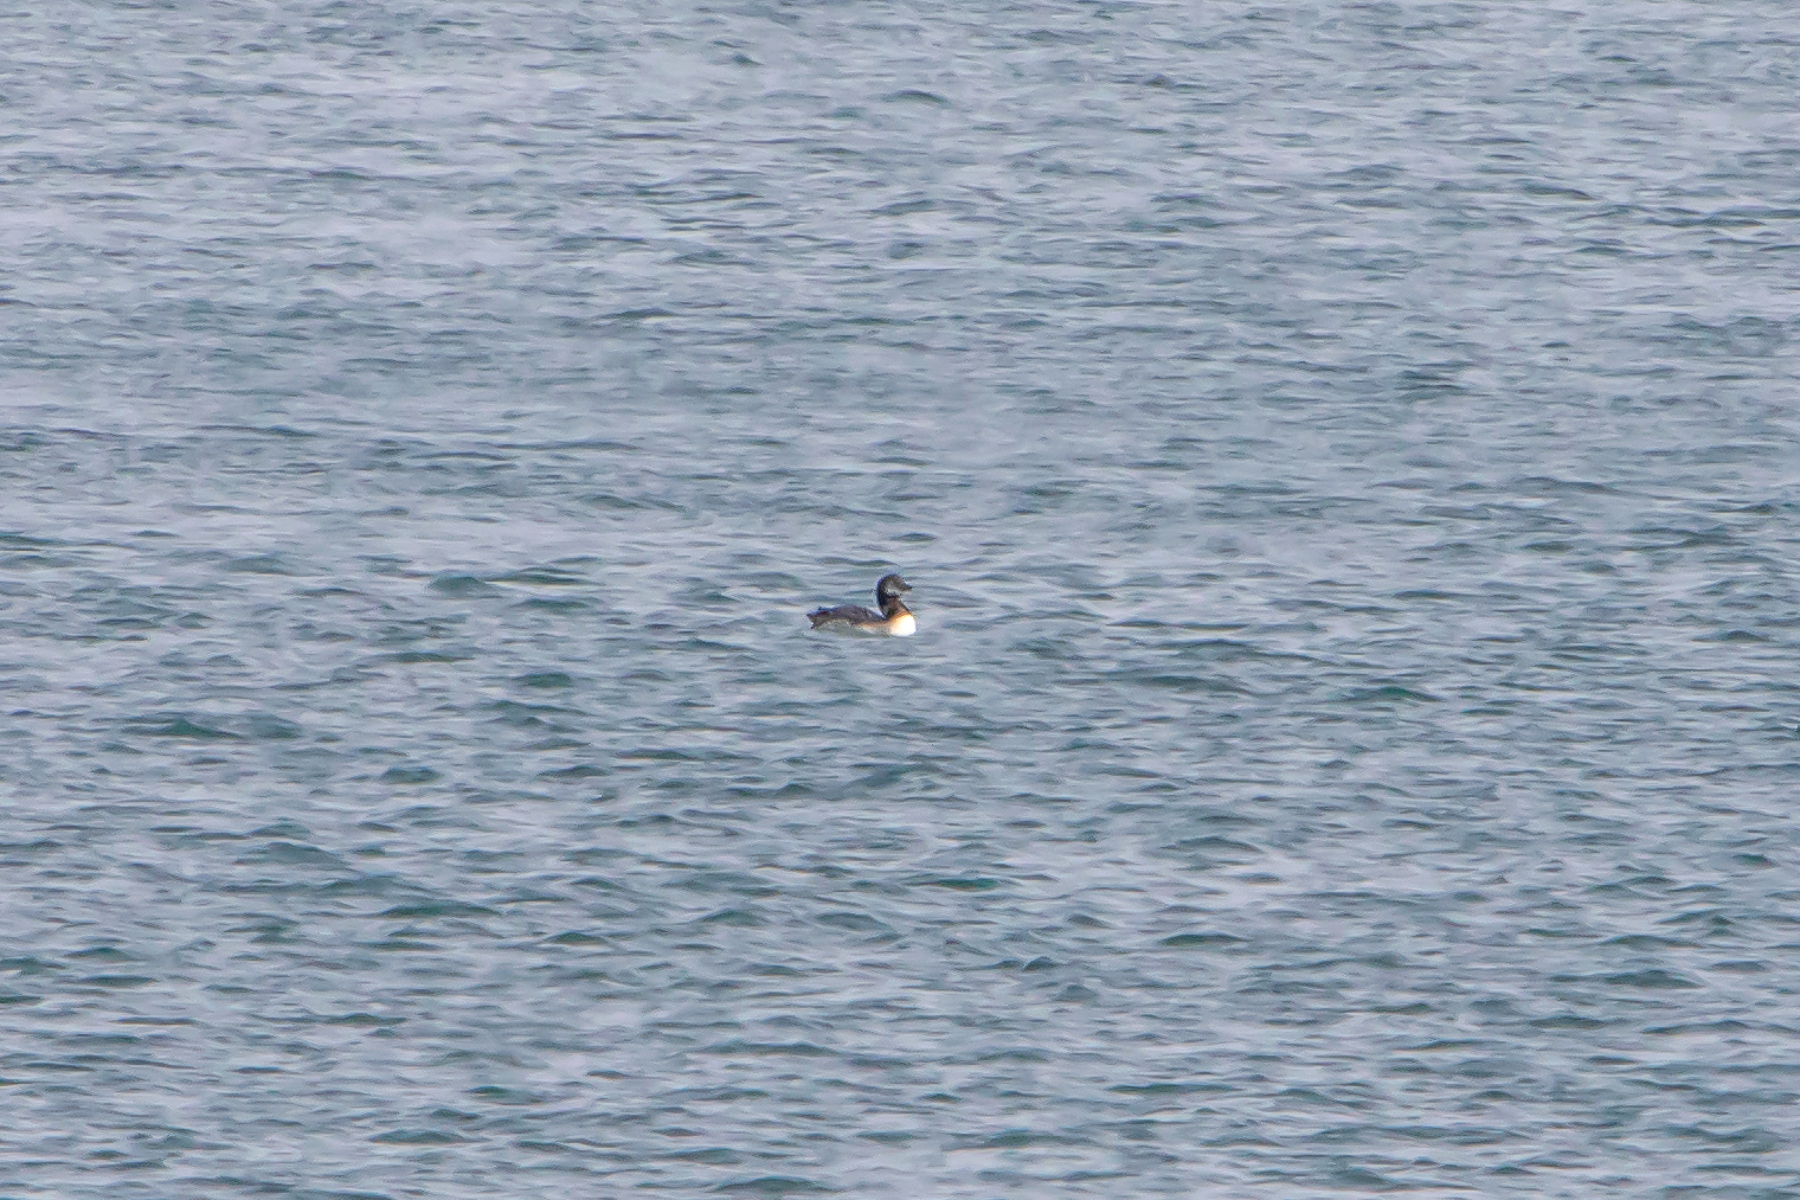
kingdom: Animalia
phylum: Chordata
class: Aves
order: Gaviiformes
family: Gaviidae
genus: Gavia
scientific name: Gavia immer
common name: Common loon
